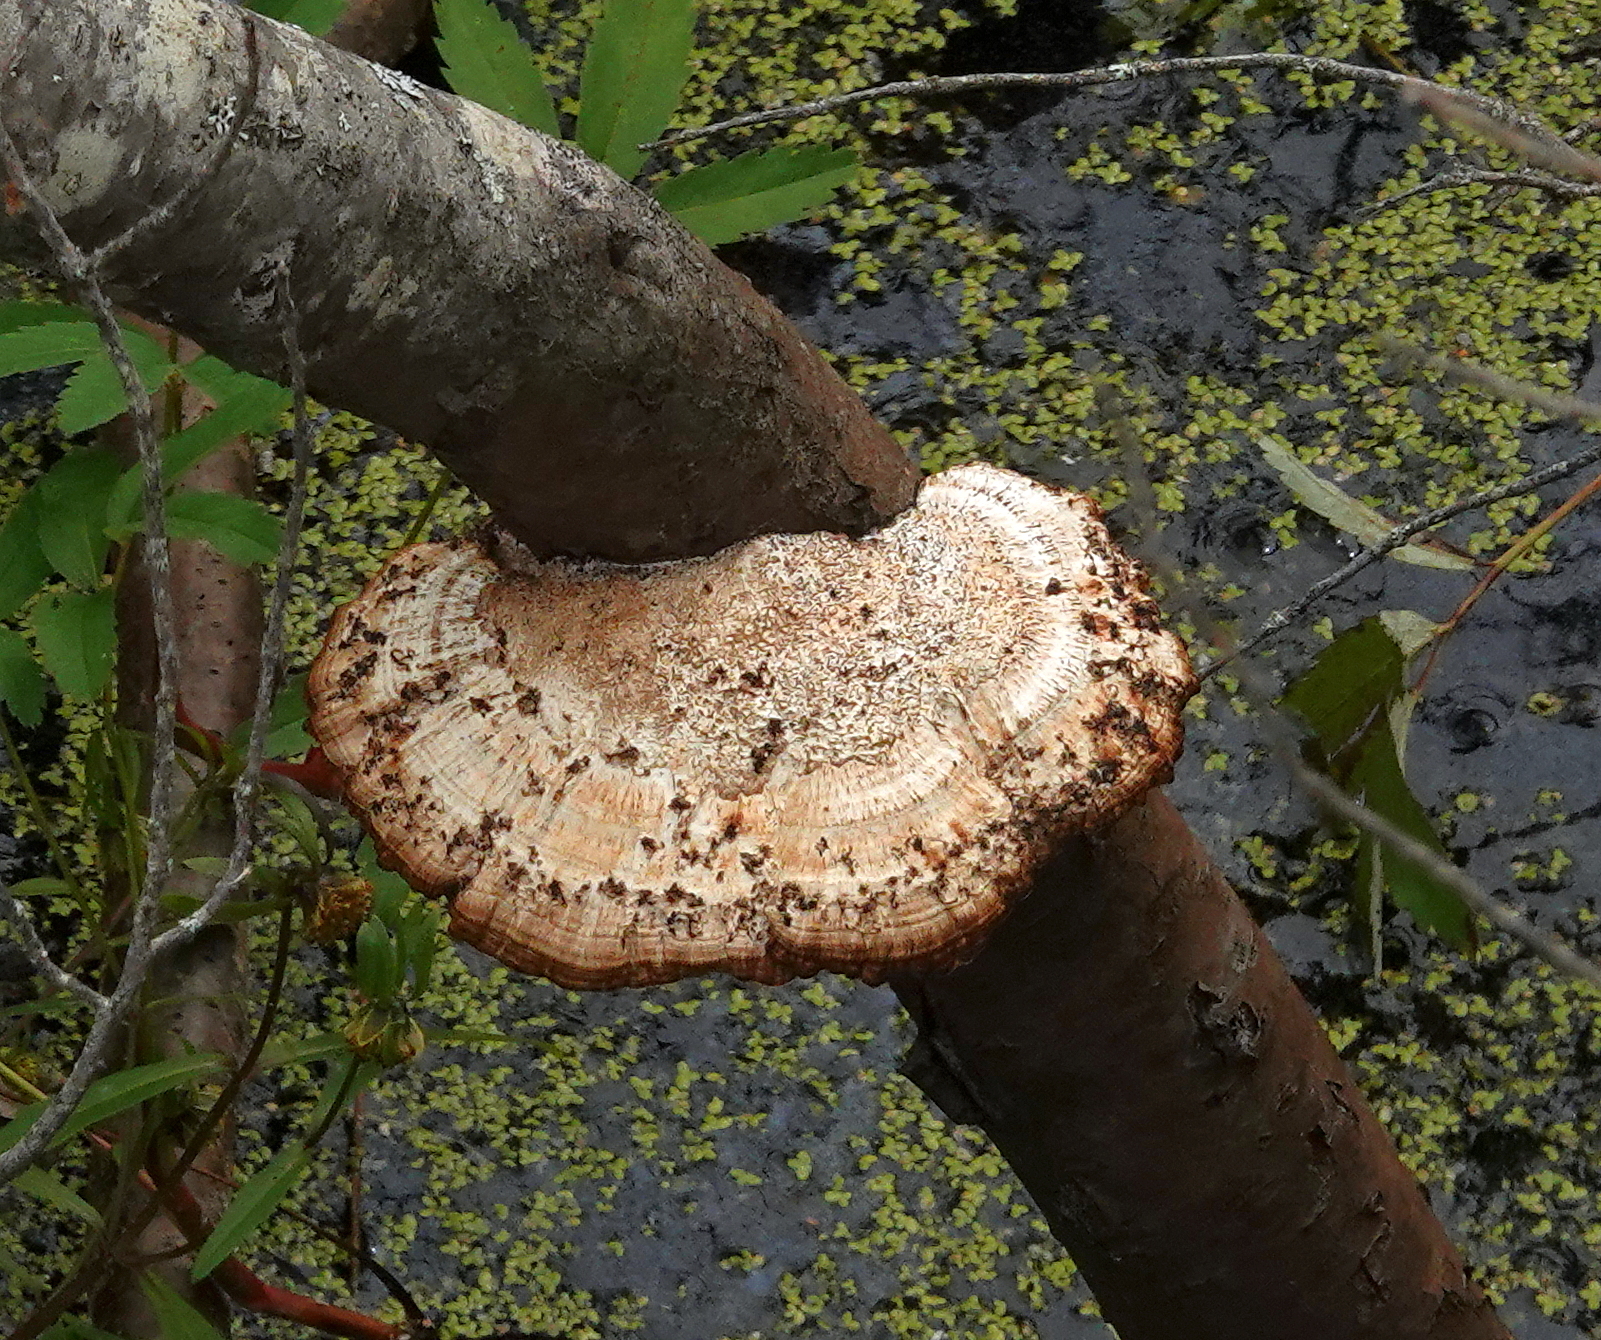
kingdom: Fungi
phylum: Basidiomycota
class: Agaricomycetes
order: Polyporales
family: Polyporaceae
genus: Daedaleopsis
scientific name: Daedaleopsis confragosa
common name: Blushing bracket
